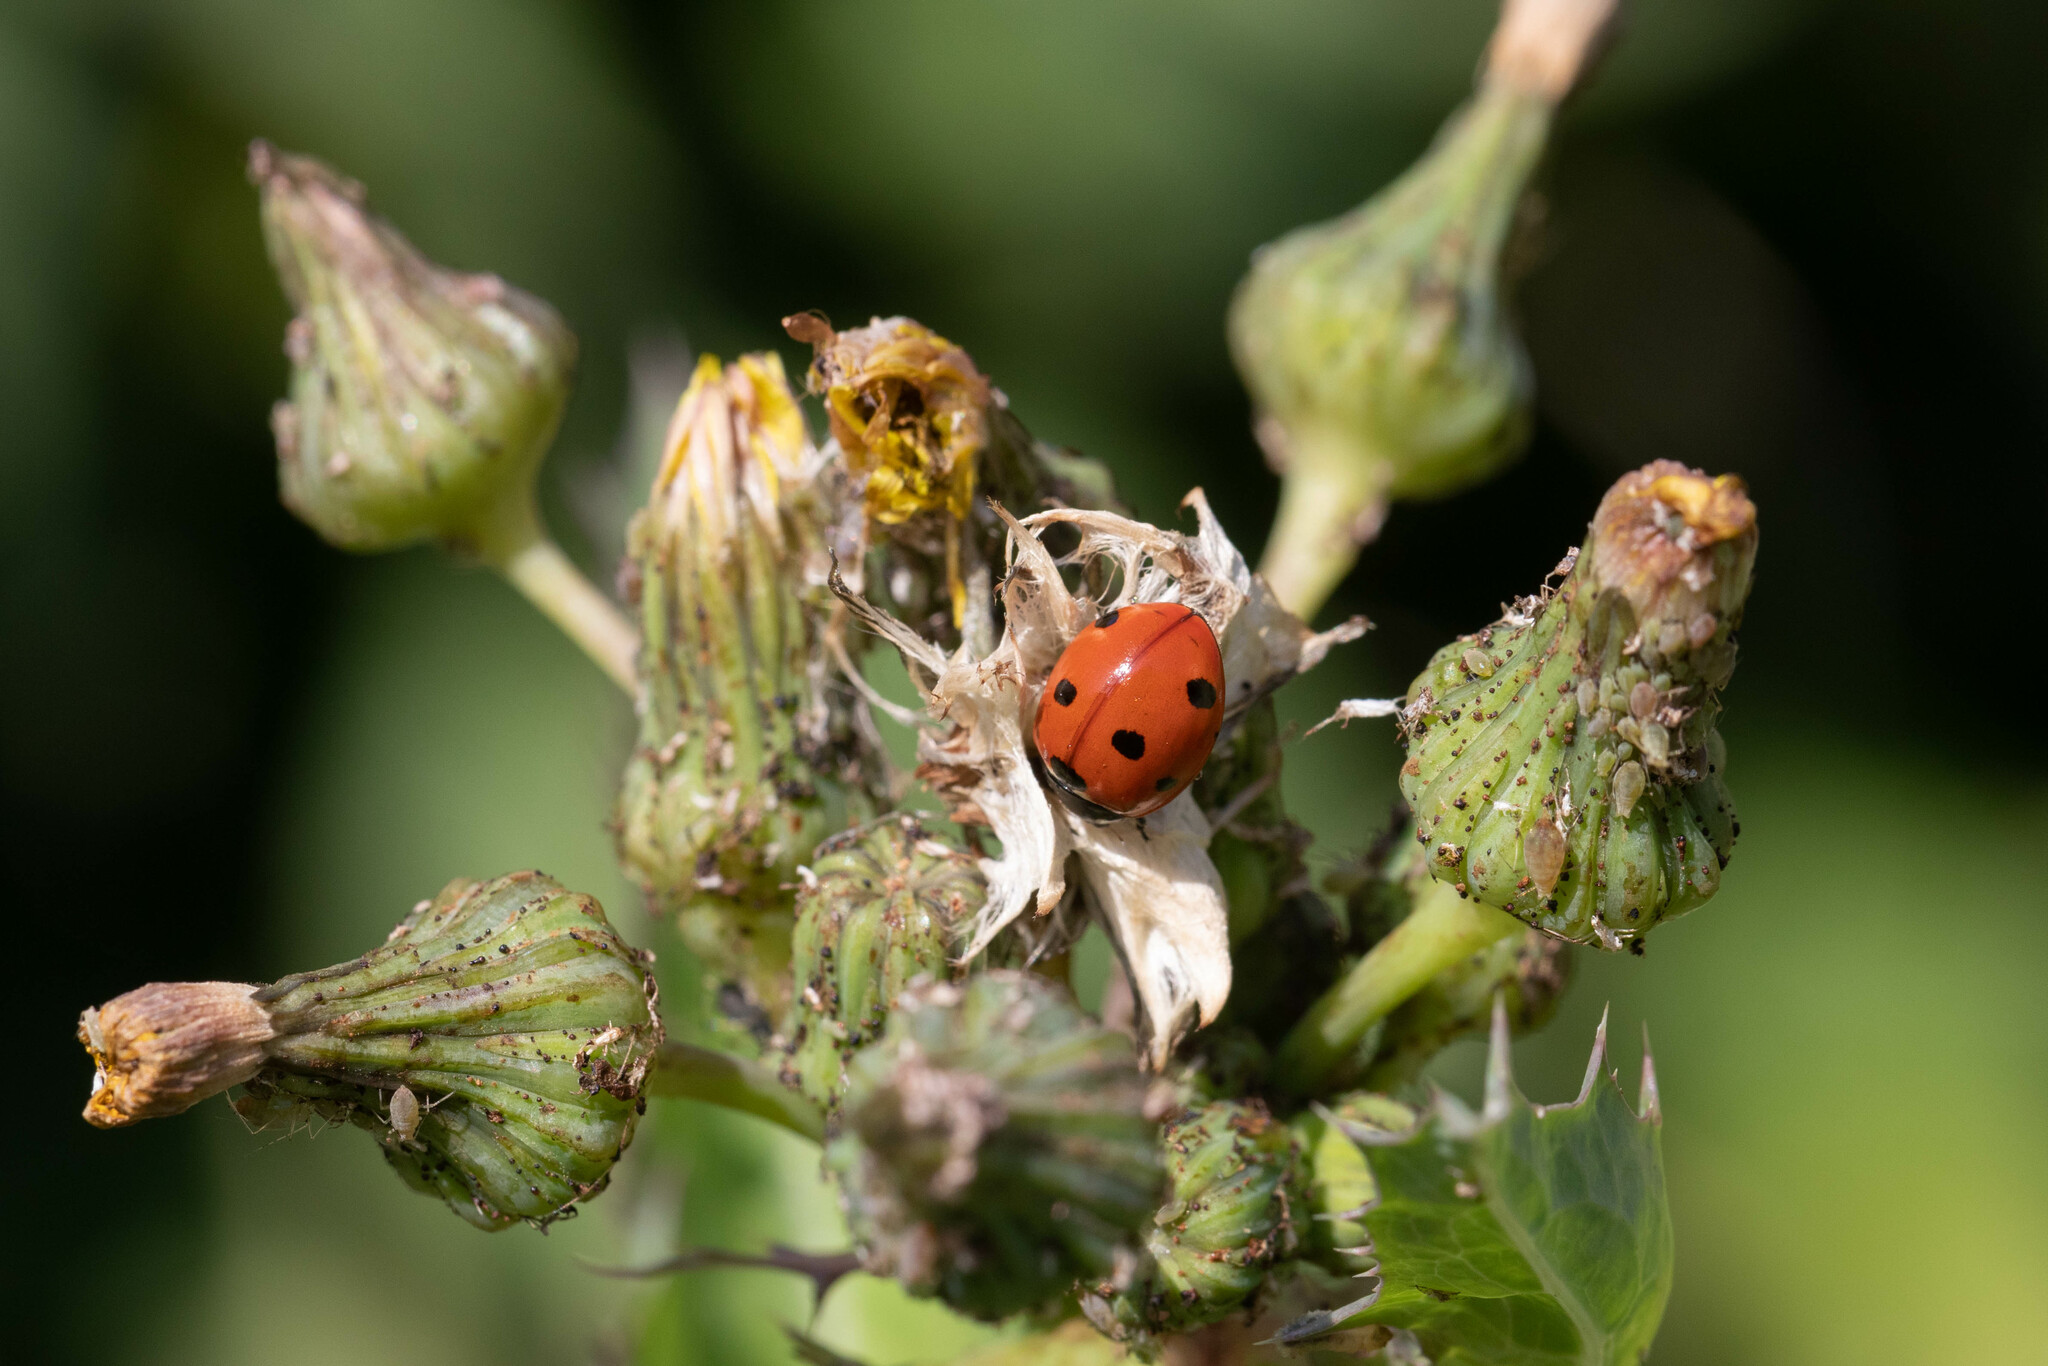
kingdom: Animalia
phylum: Arthropoda
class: Insecta
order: Coleoptera
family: Coccinellidae
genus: Coccinella
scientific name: Coccinella septempunctata
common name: Sevenspotted lady beetle
